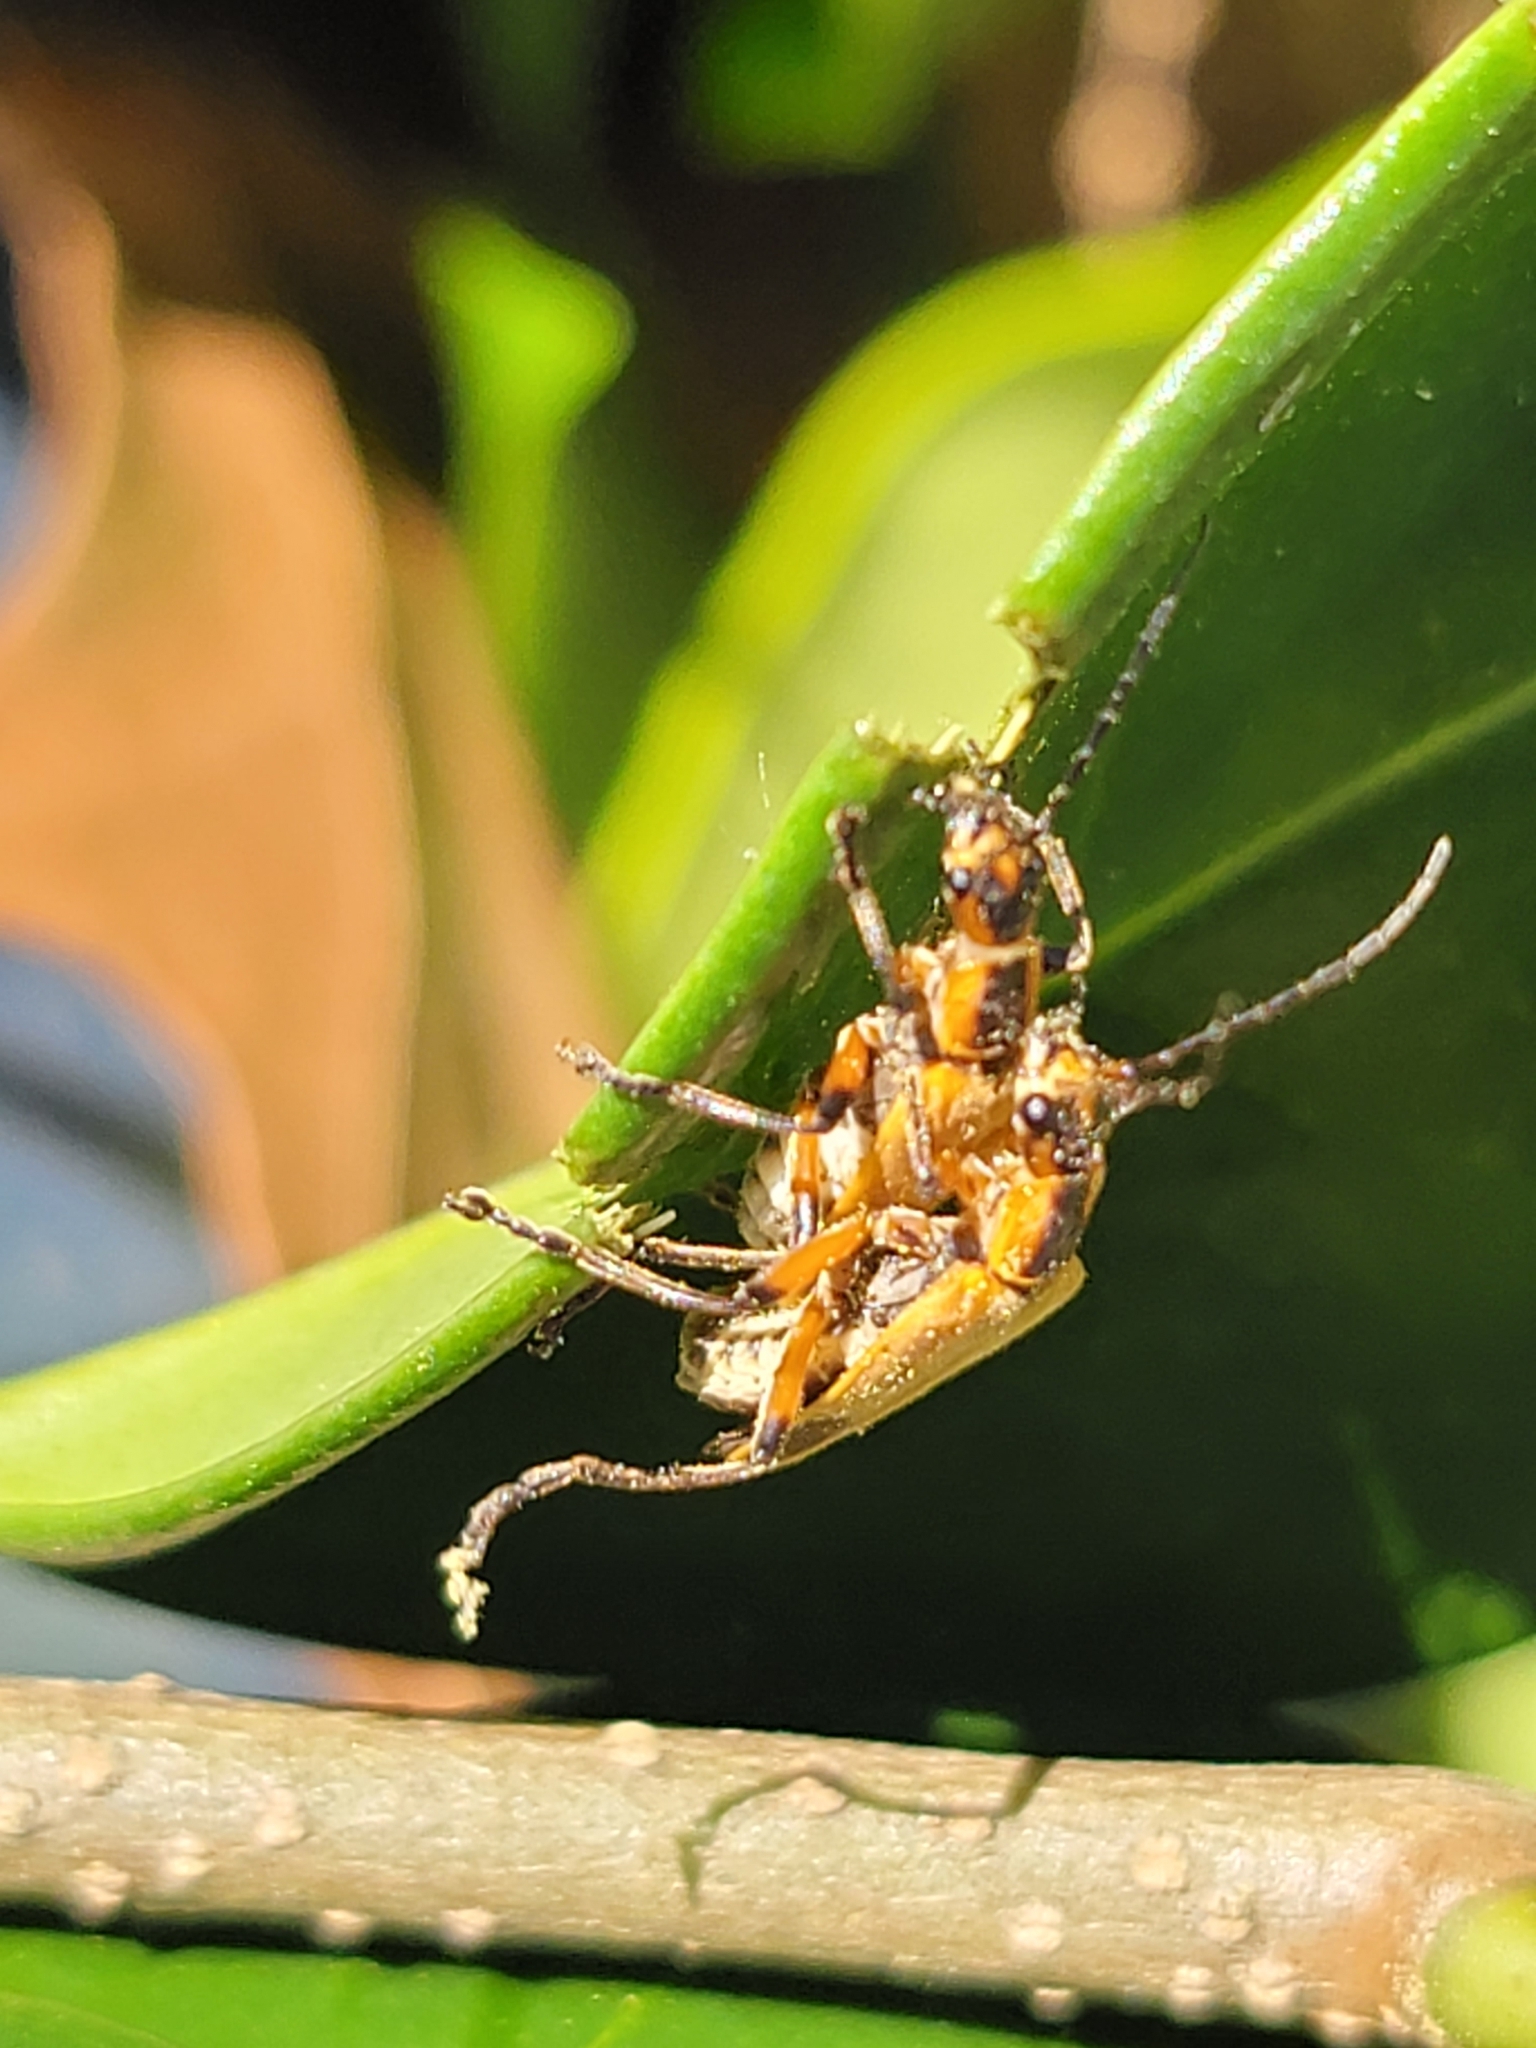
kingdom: Animalia
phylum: Arthropoda
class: Insecta
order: Coleoptera
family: Cantharidae
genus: Chauliognathus
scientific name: Chauliognathus marginatus
